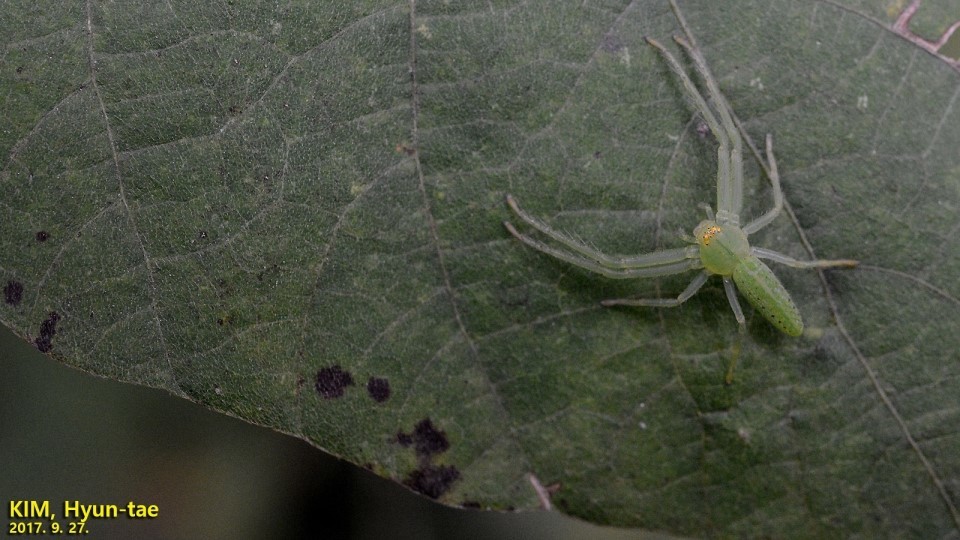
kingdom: Animalia
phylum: Arthropoda
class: Arachnida
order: Araneae
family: Thomisidae
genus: Oxytate
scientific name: Oxytate striatipes
